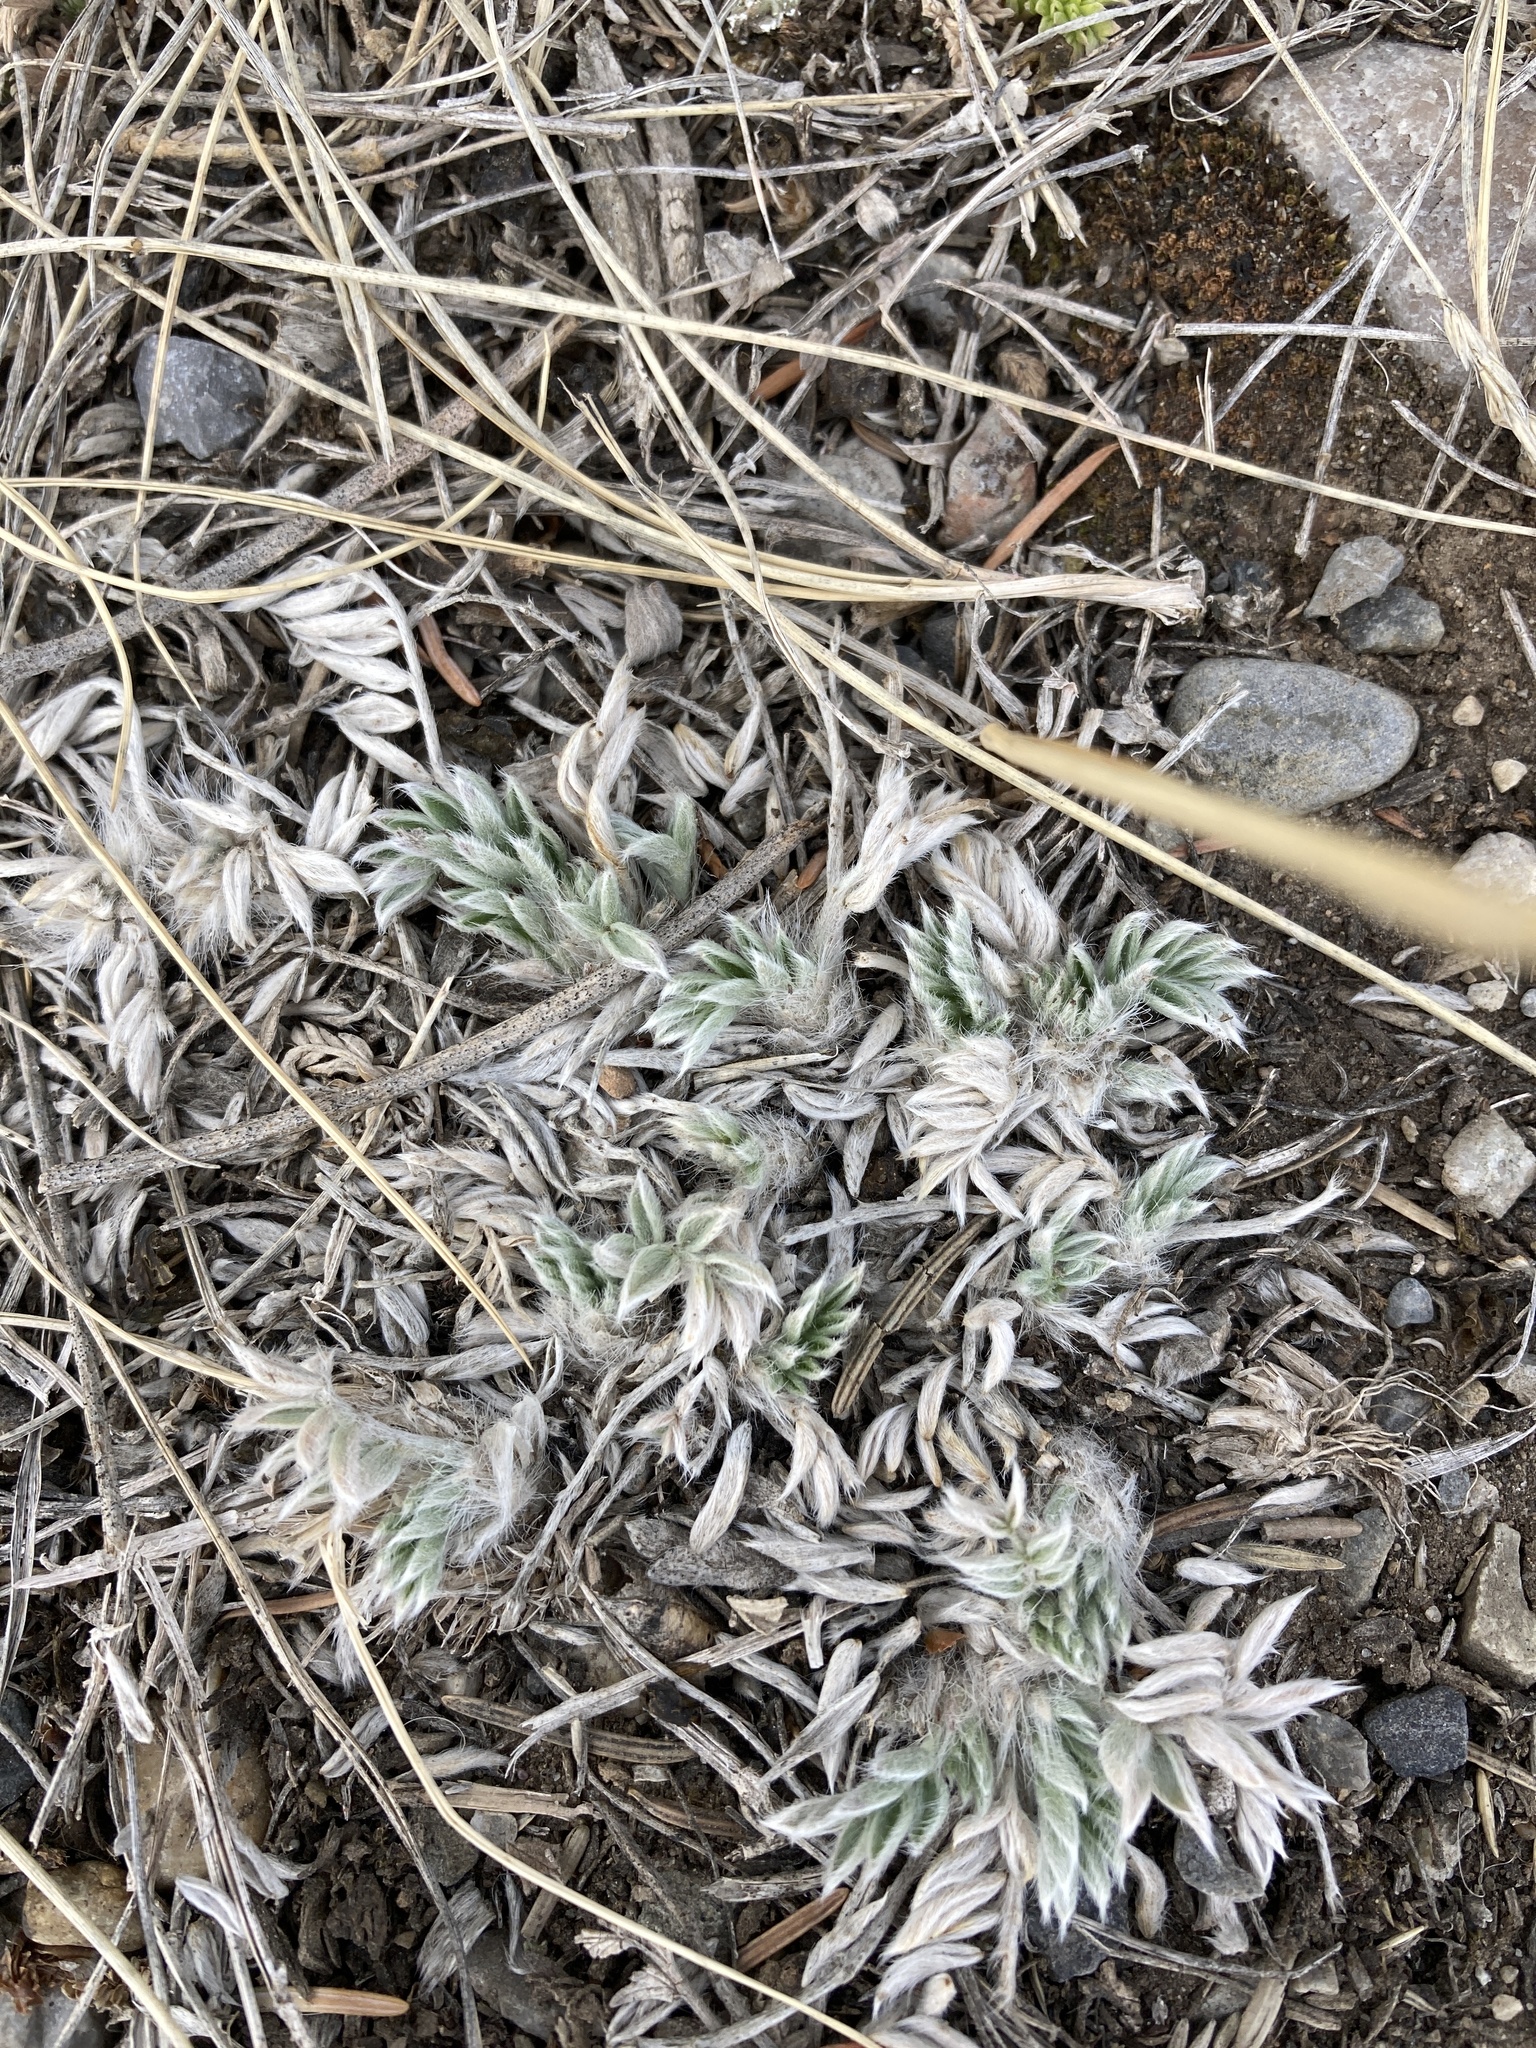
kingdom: Plantae
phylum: Tracheophyta
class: Magnoliopsida
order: Fabales
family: Fabaceae
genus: Oxytropis
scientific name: Oxytropis sericea
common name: Silky locoweed
